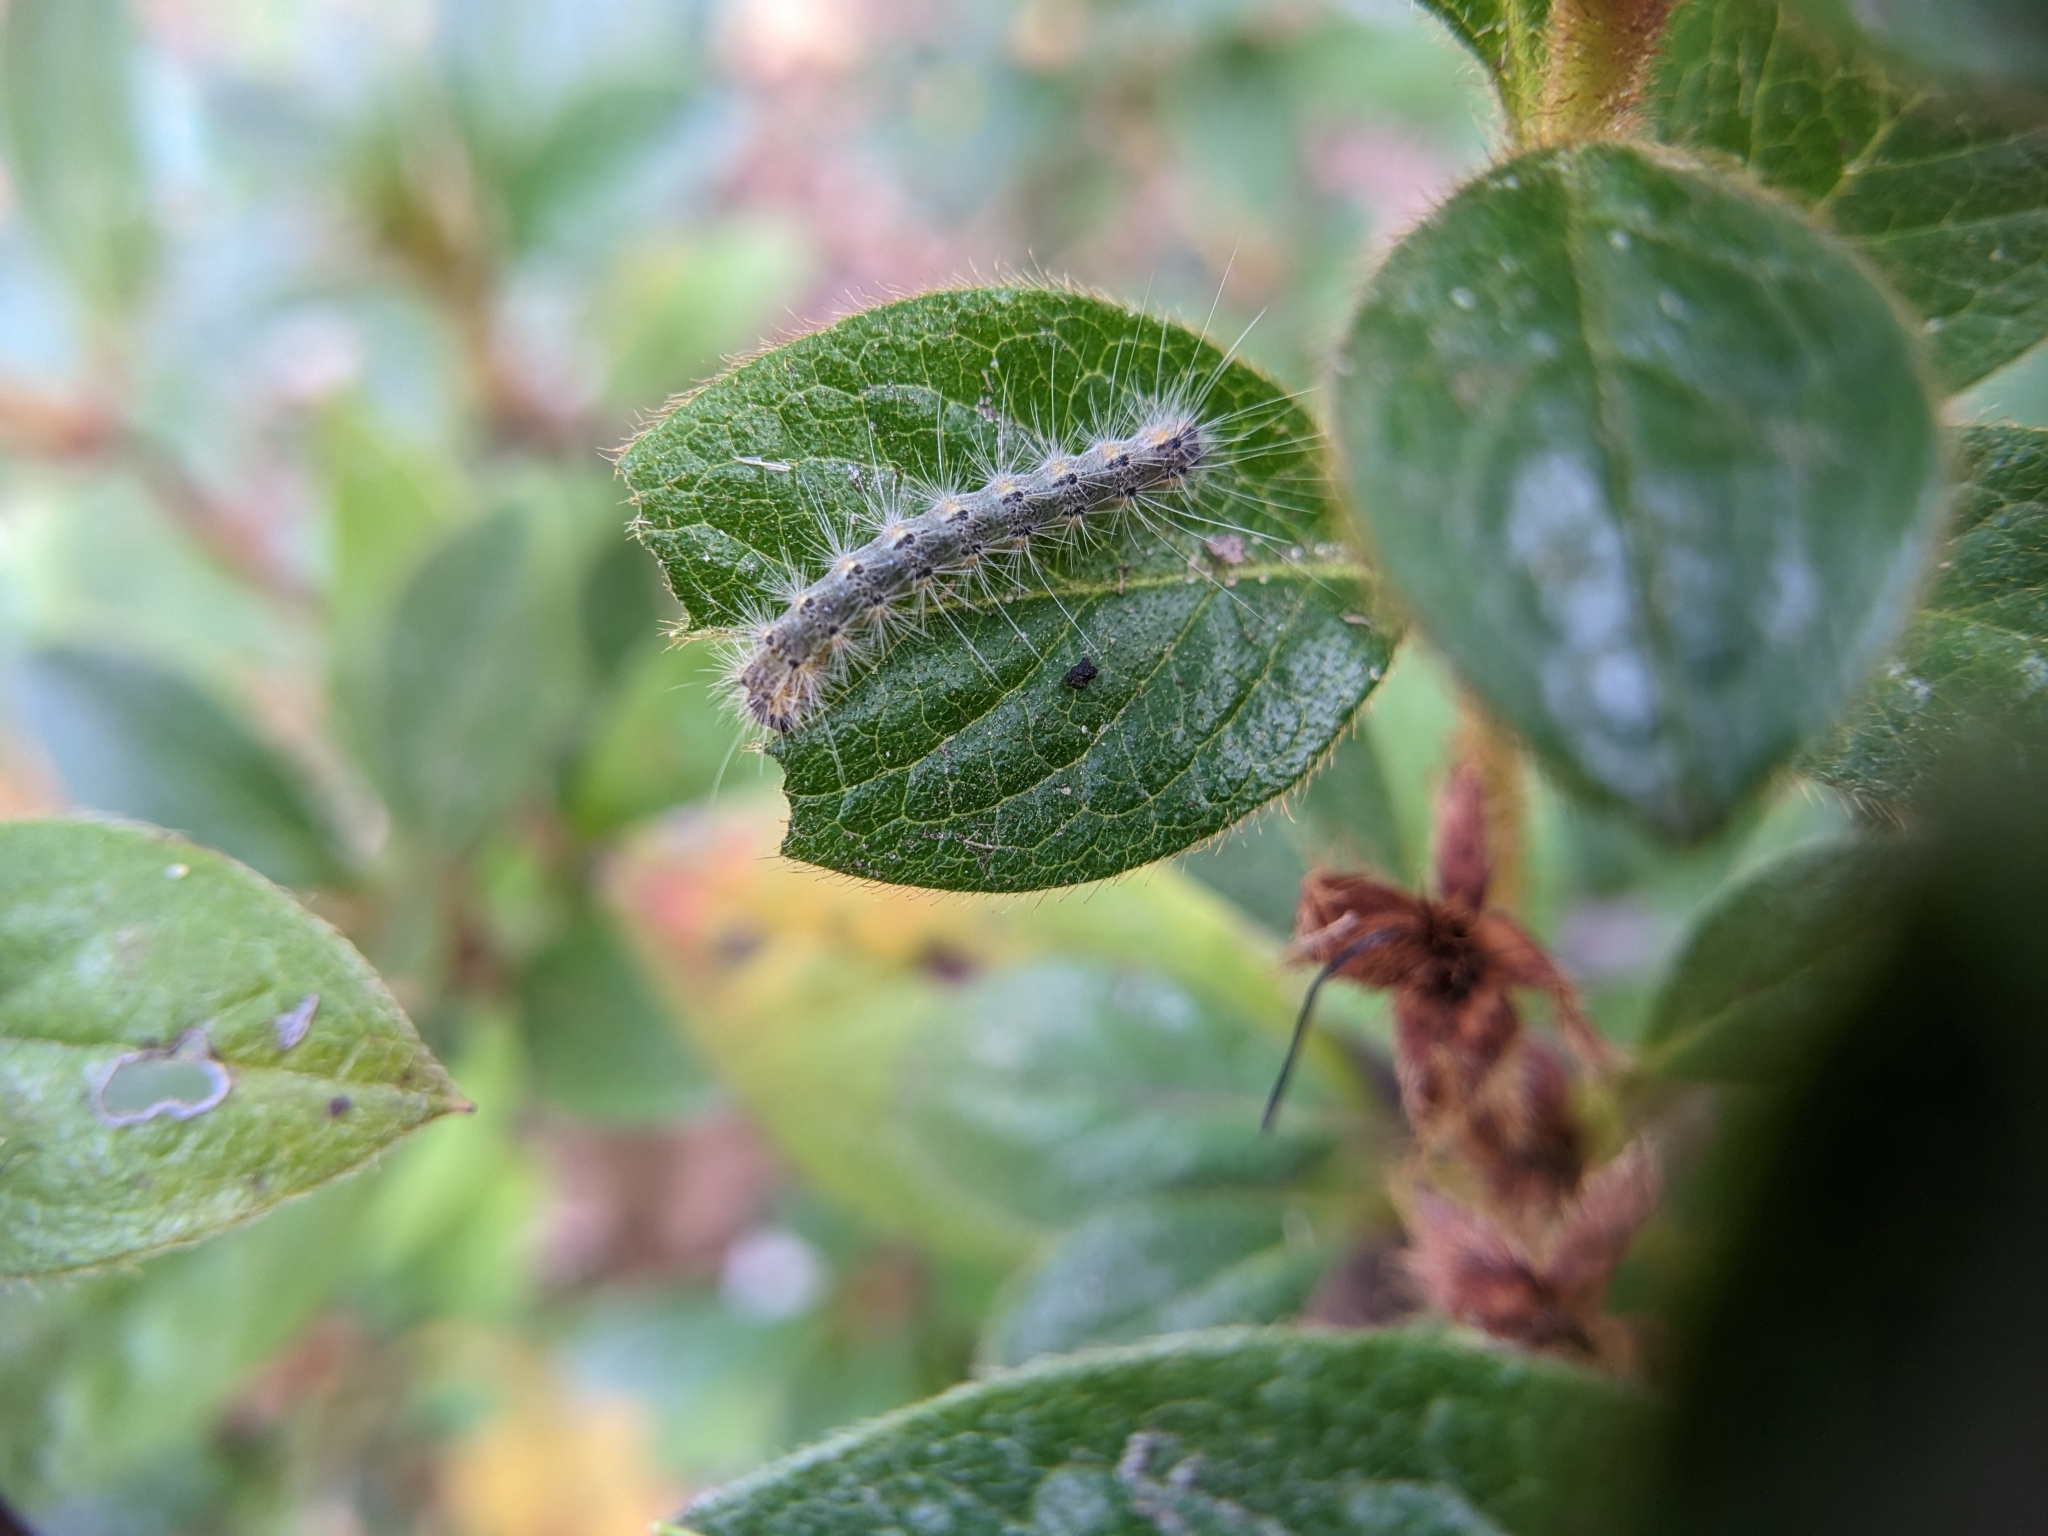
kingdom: Animalia
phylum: Arthropoda
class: Insecta
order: Lepidoptera
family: Erebidae
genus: Hyphantria
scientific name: Hyphantria cunea
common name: American white moth
